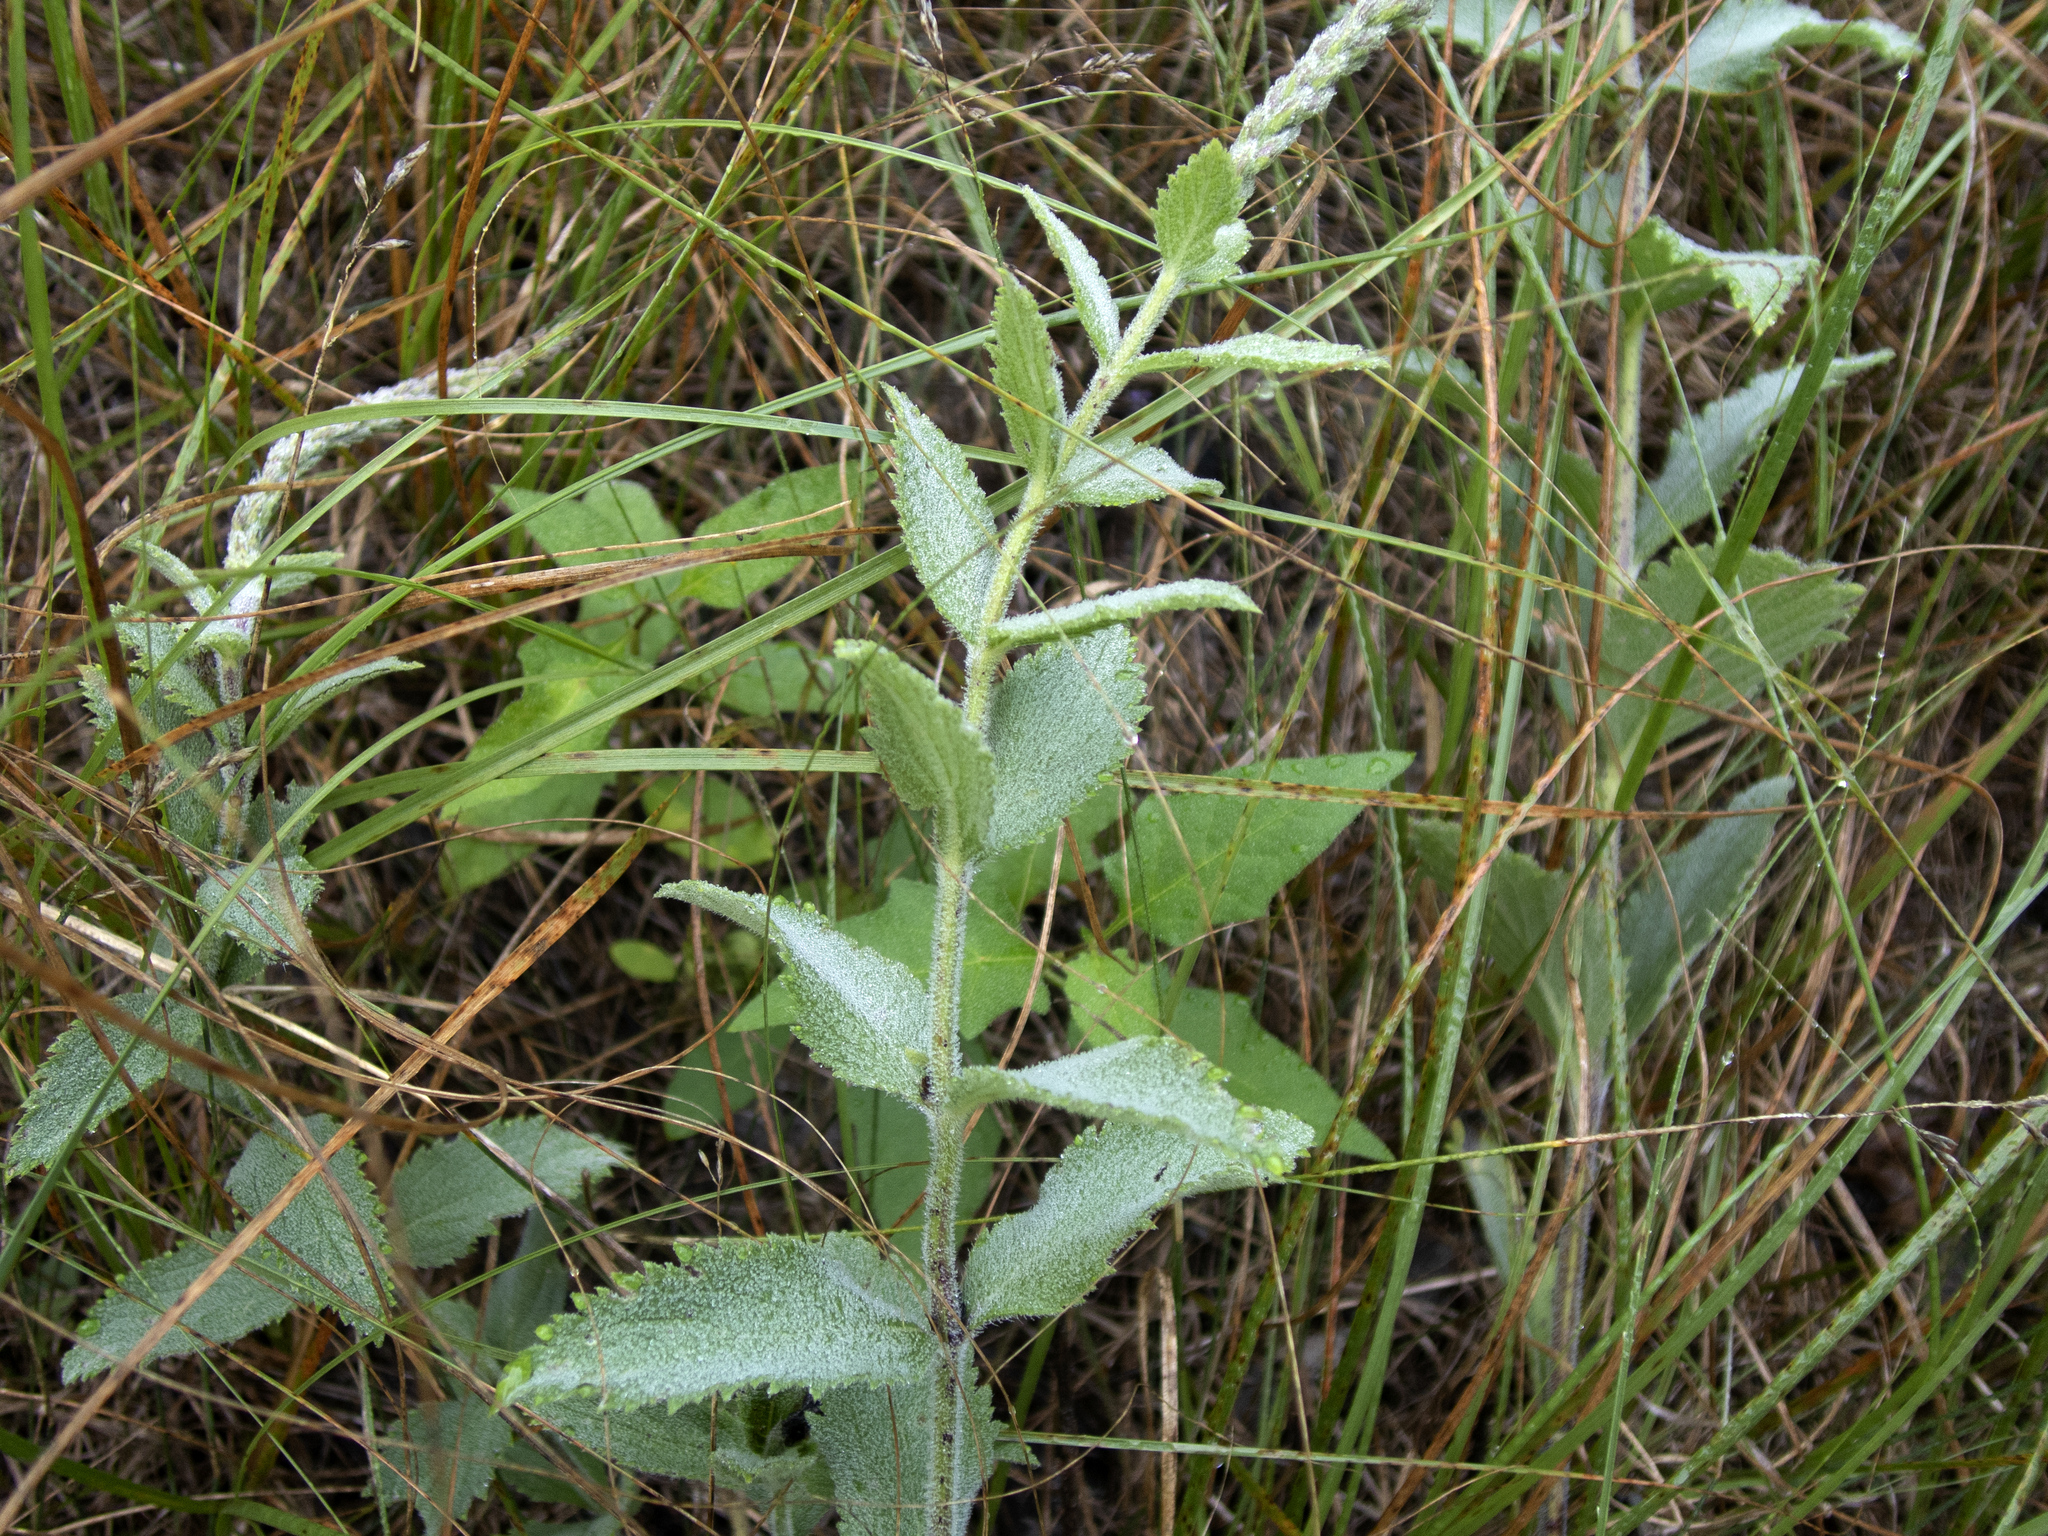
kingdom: Plantae
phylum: Tracheophyta
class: Magnoliopsida
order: Lamiales
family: Verbenaceae
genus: Verbena
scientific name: Verbena stricta
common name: Hoary vervain
